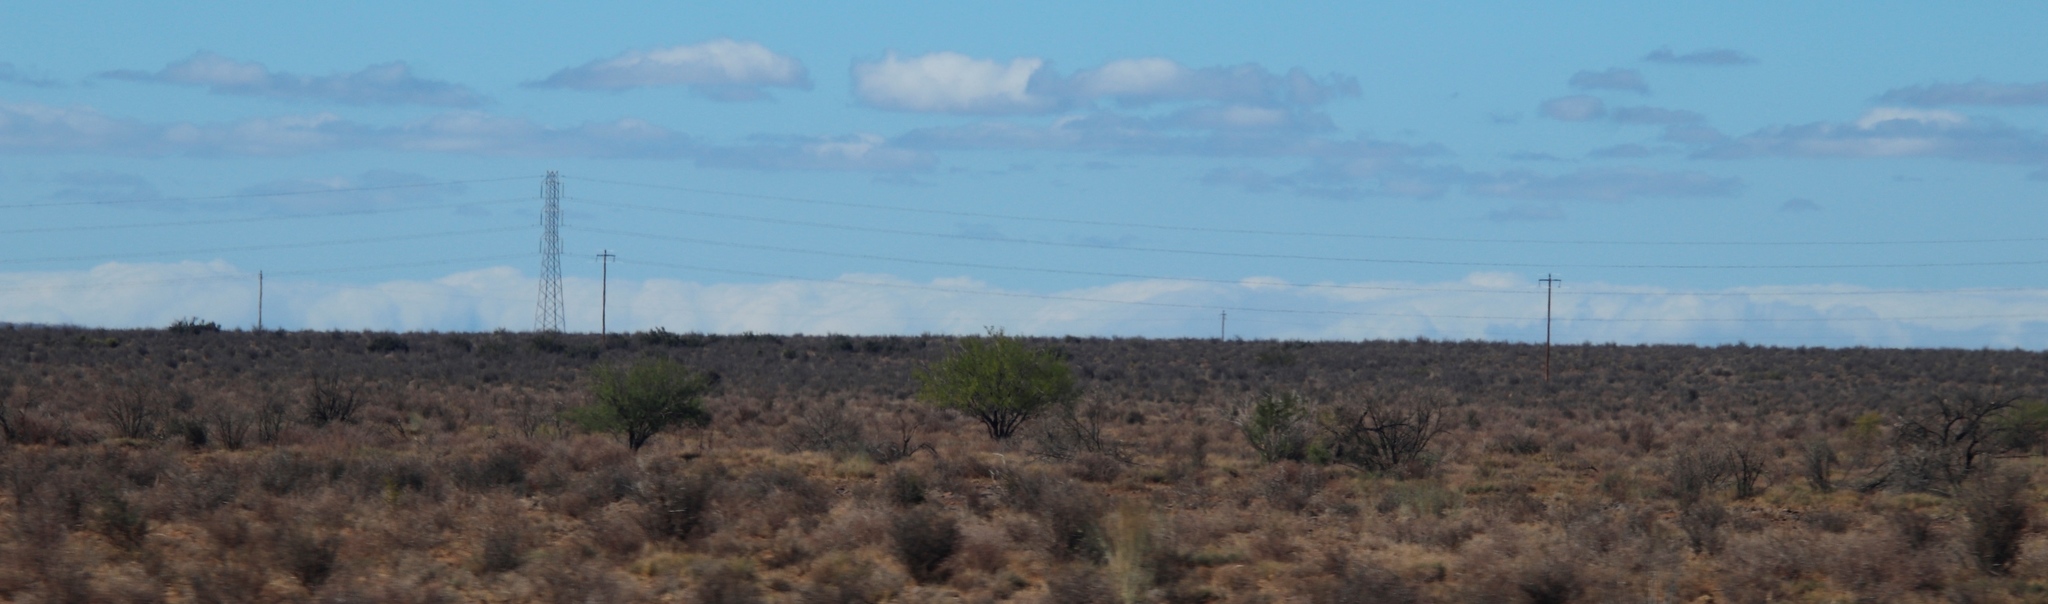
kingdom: Plantae
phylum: Tracheophyta
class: Magnoliopsida
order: Fabales
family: Fabaceae
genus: Vachellia
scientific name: Vachellia karroo
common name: Sweet thorn
